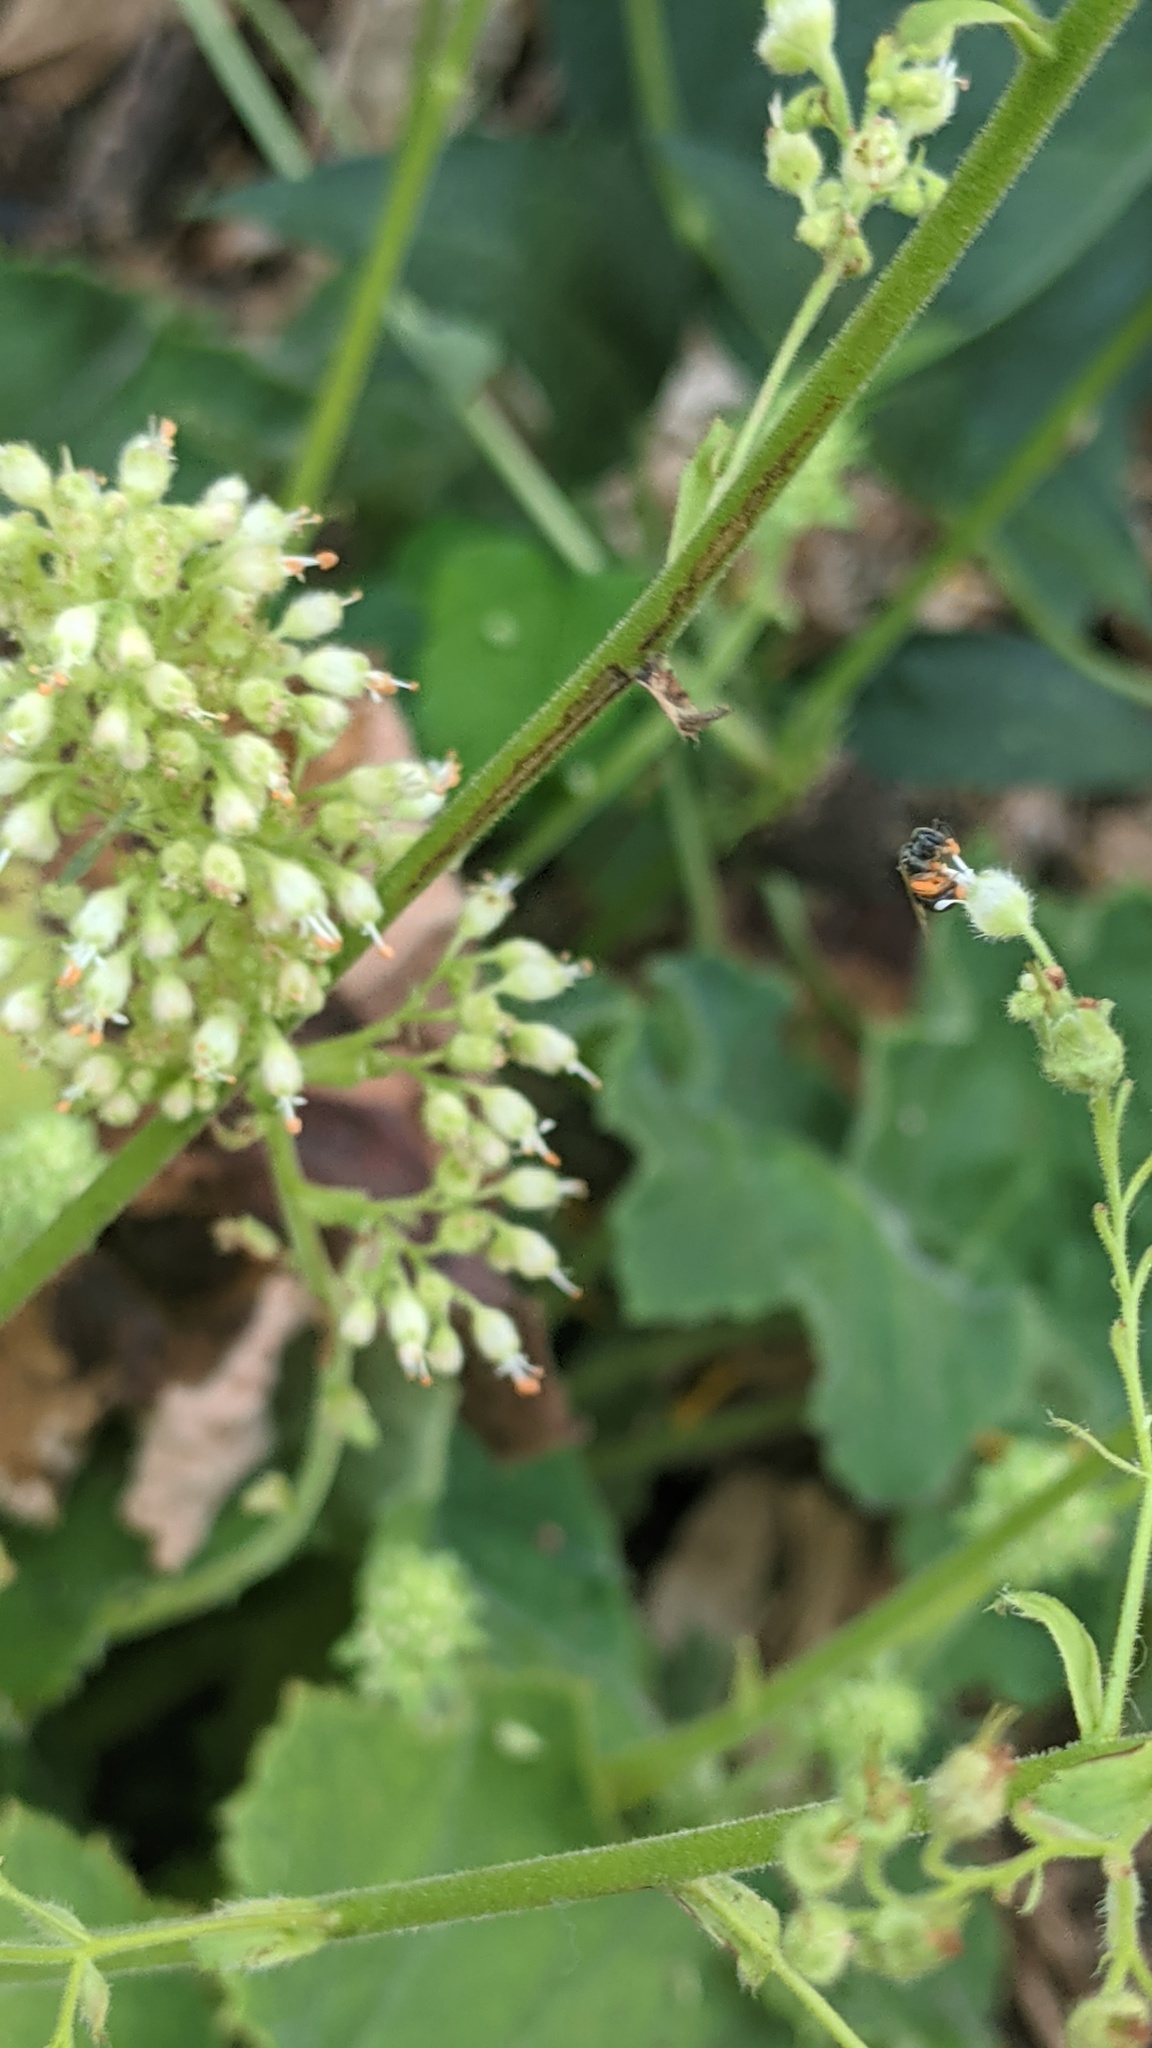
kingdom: Animalia
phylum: Arthropoda
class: Insecta
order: Hymenoptera
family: Halictidae
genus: Dialictus
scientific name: Dialictus
